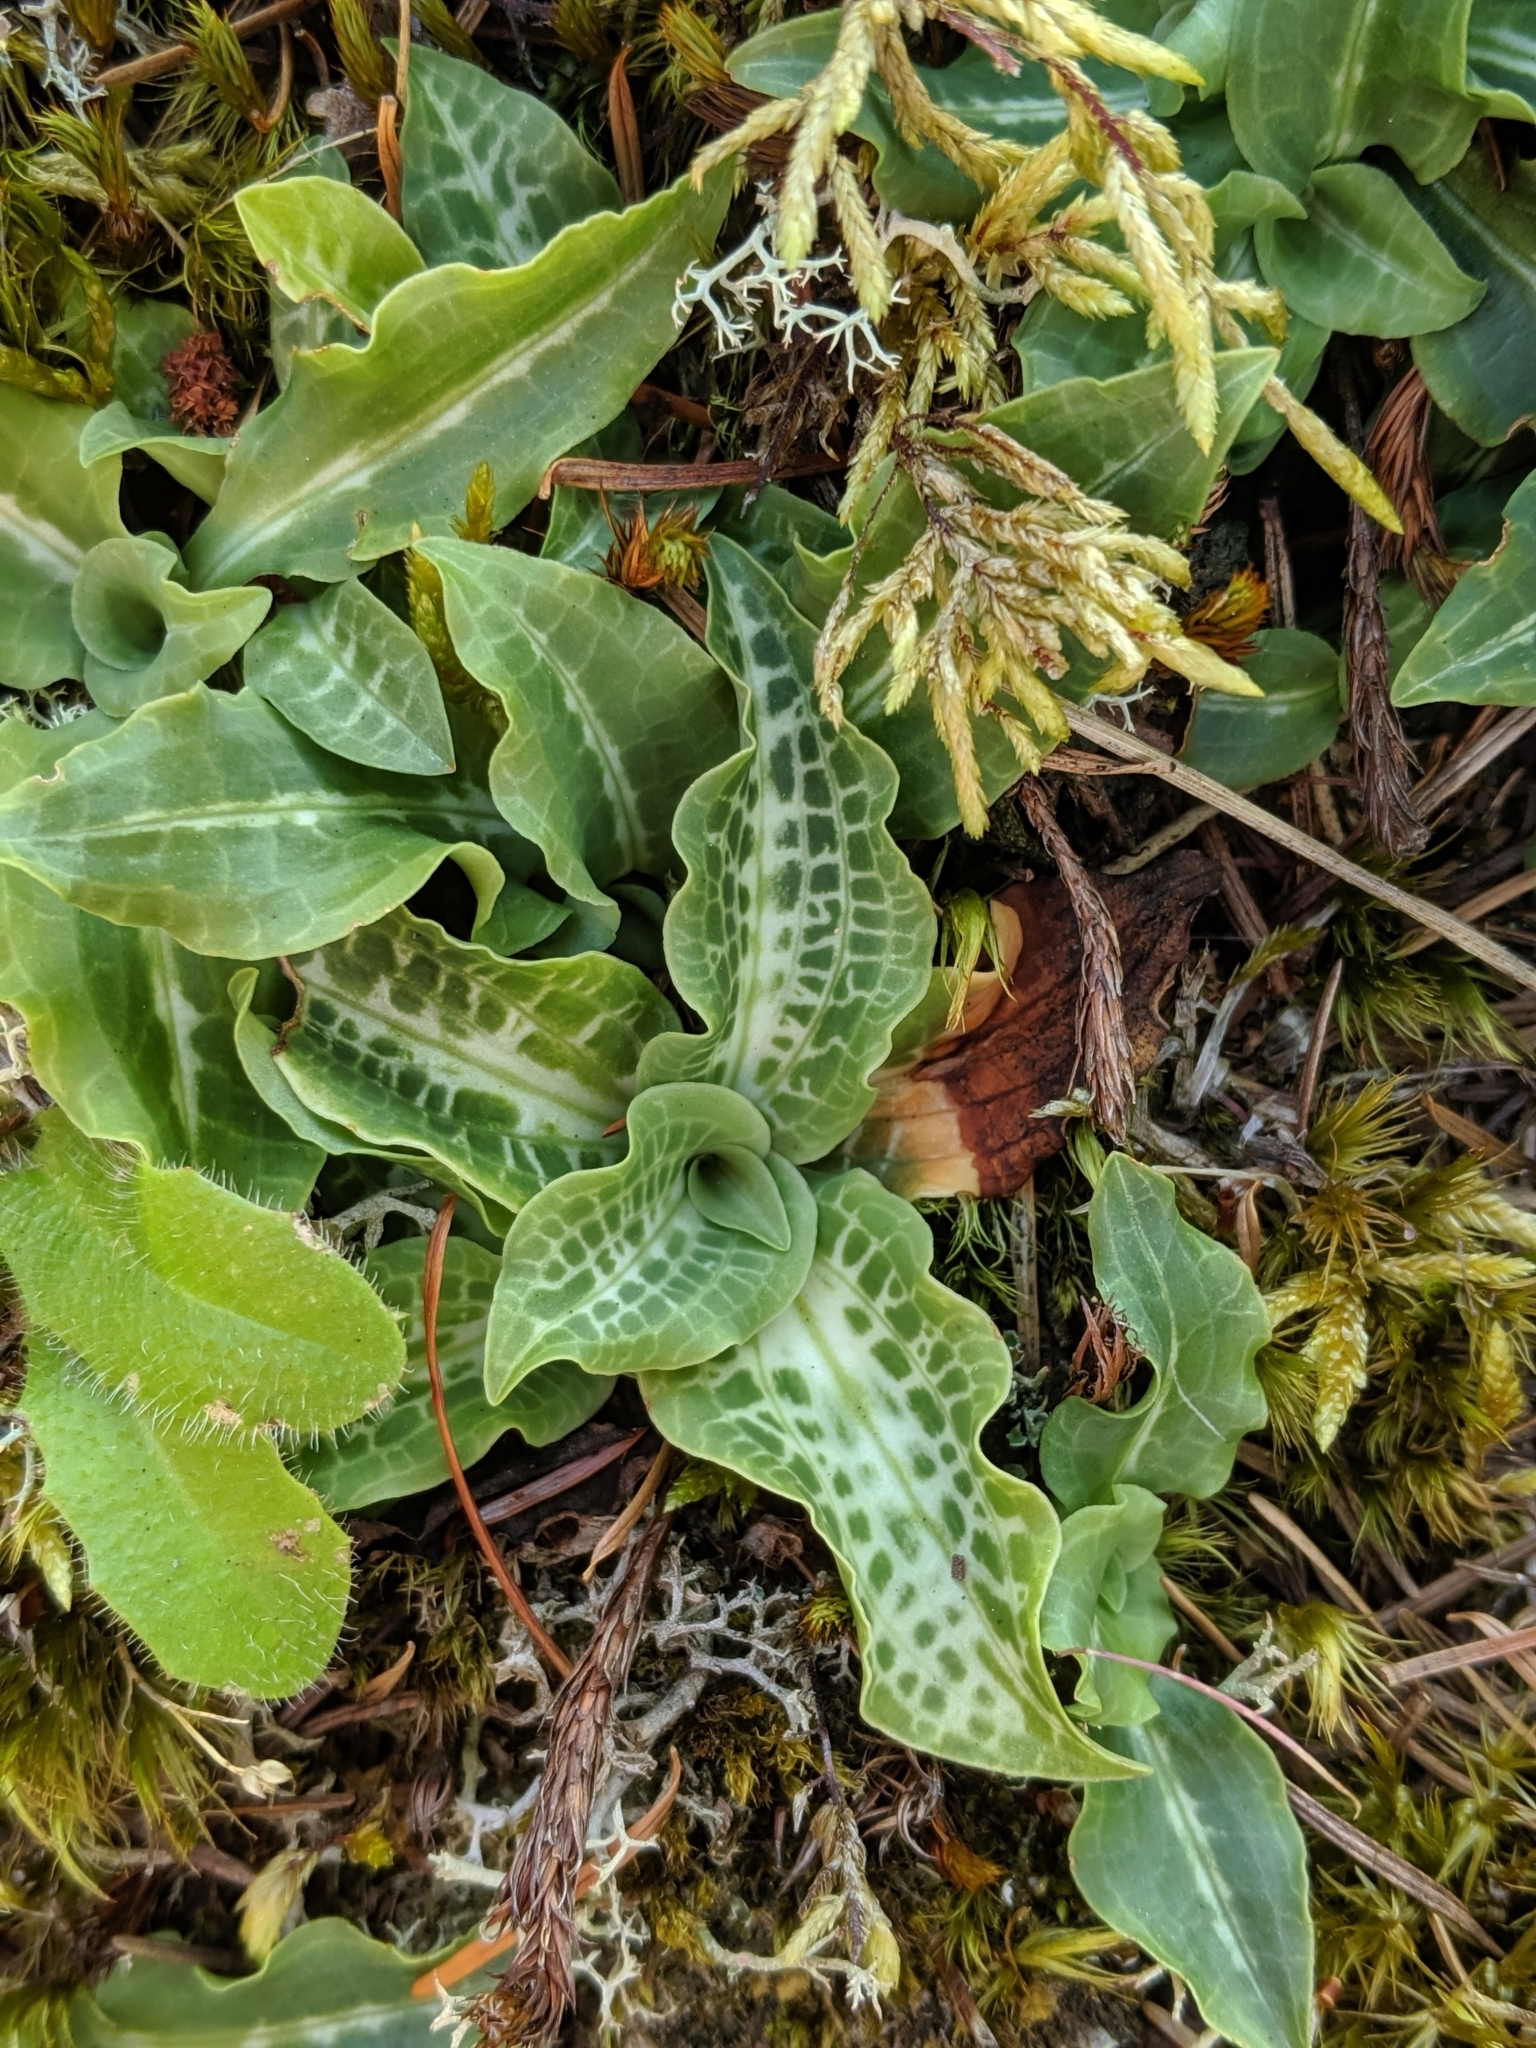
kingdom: Plantae
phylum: Tracheophyta
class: Liliopsida
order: Asparagales
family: Orchidaceae
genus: Goodyera
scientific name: Goodyera oblongifolia
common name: Giant rattlesnake-plantain
